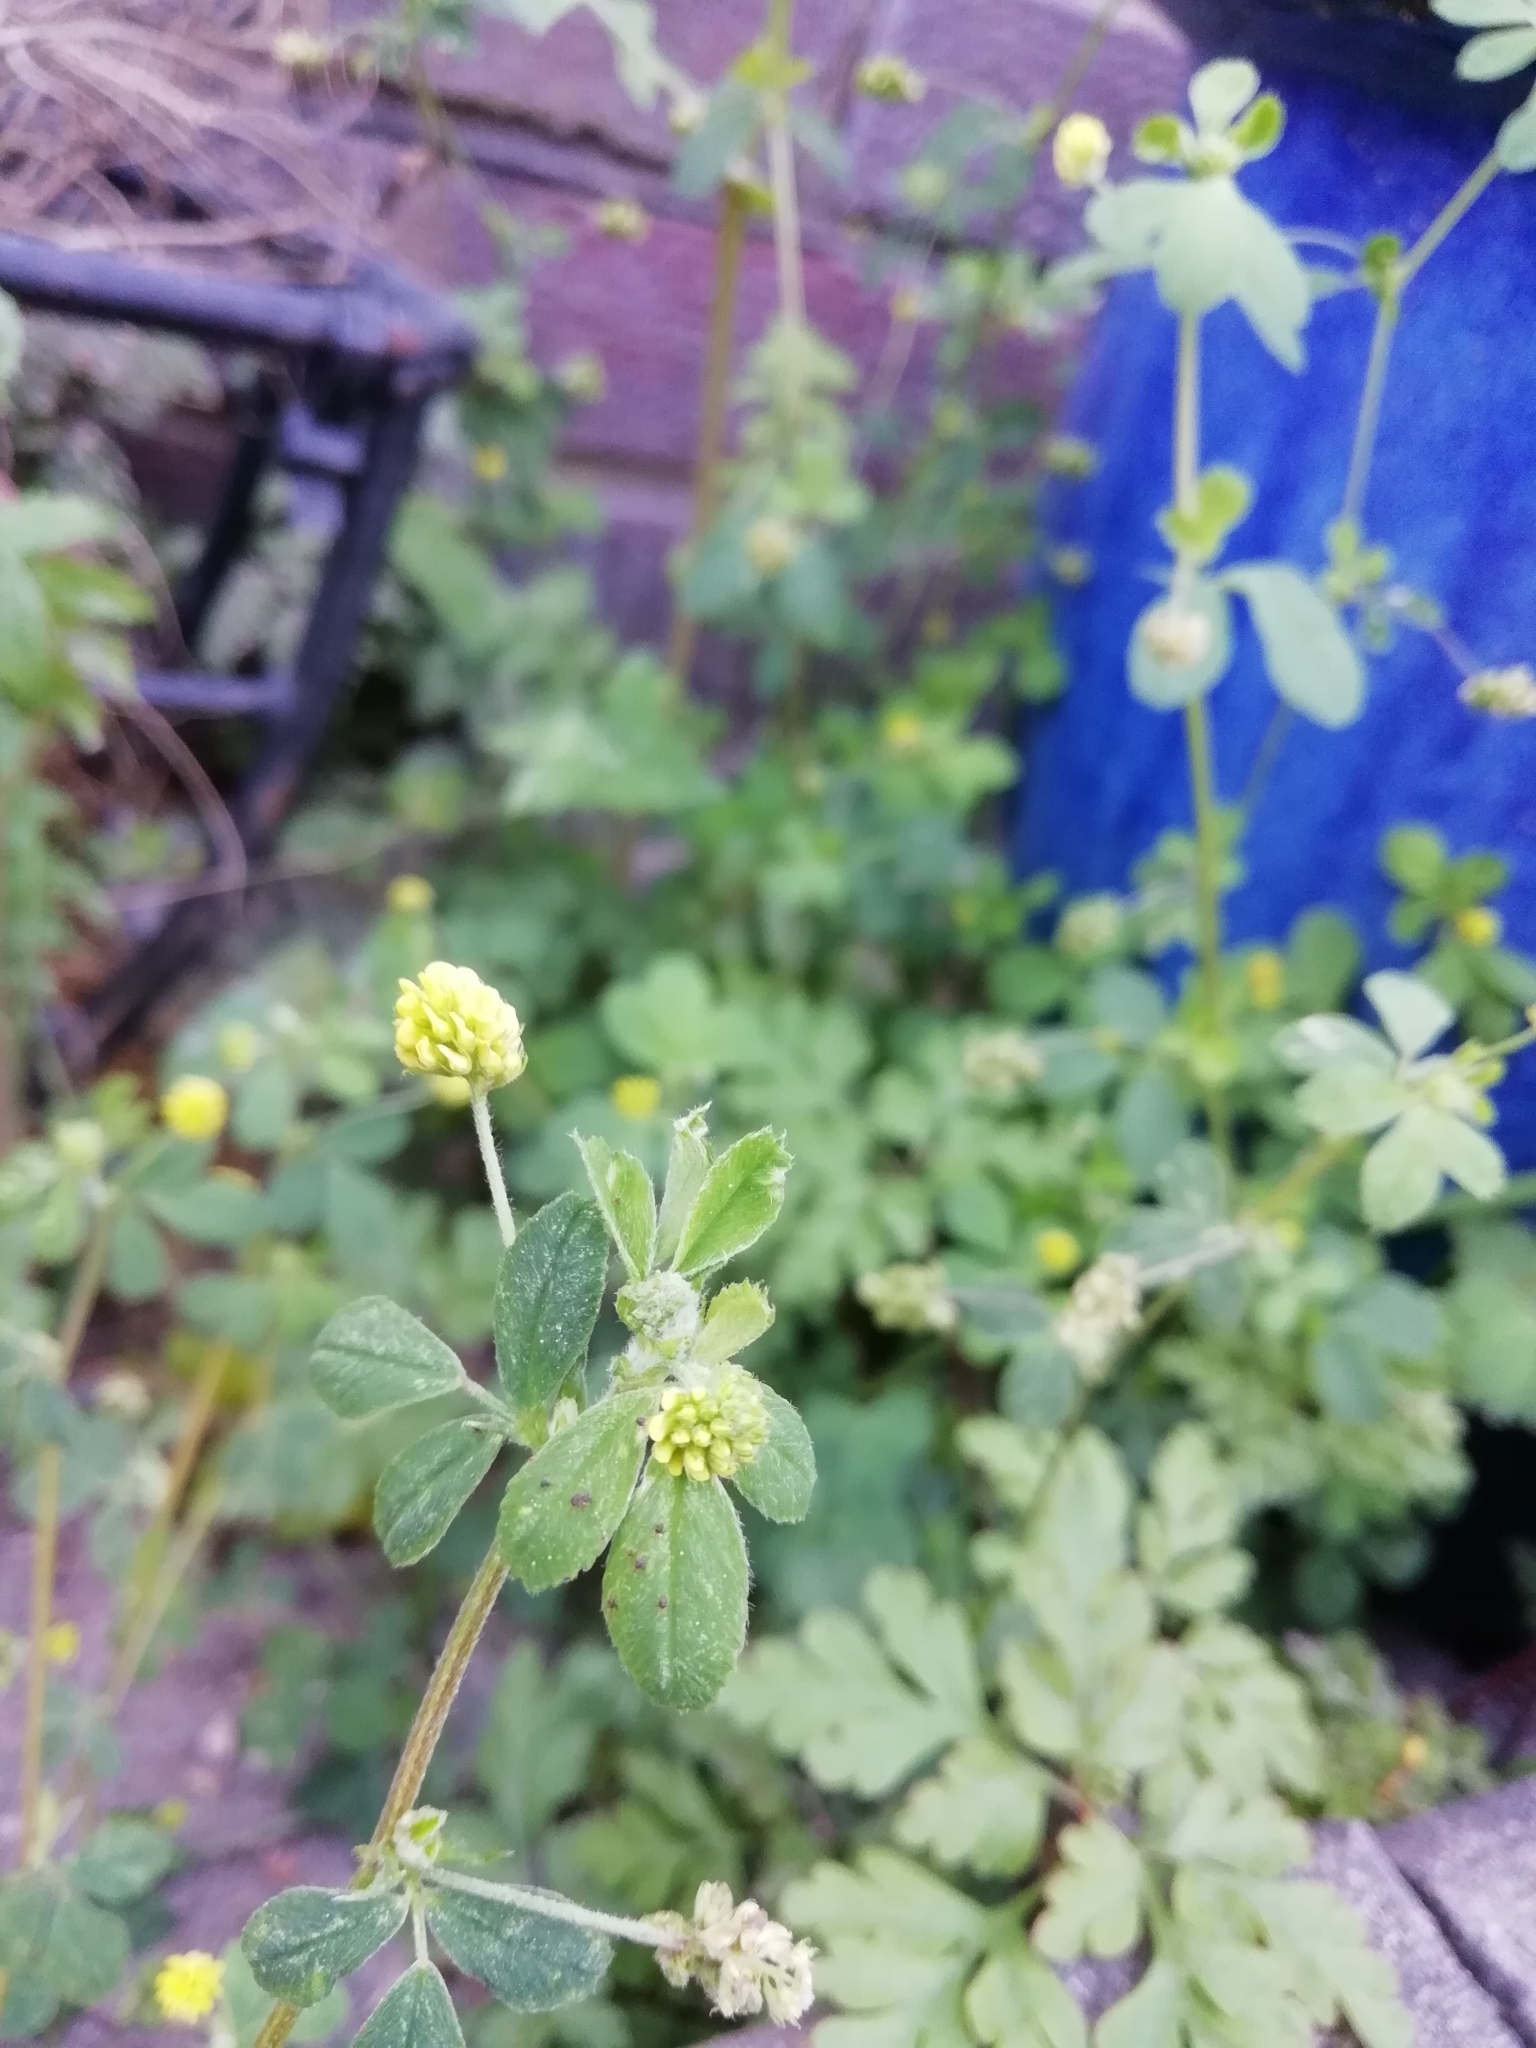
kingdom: Plantae
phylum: Tracheophyta
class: Magnoliopsida
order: Fabales
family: Fabaceae
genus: Medicago
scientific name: Medicago lupulina
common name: Black medick
